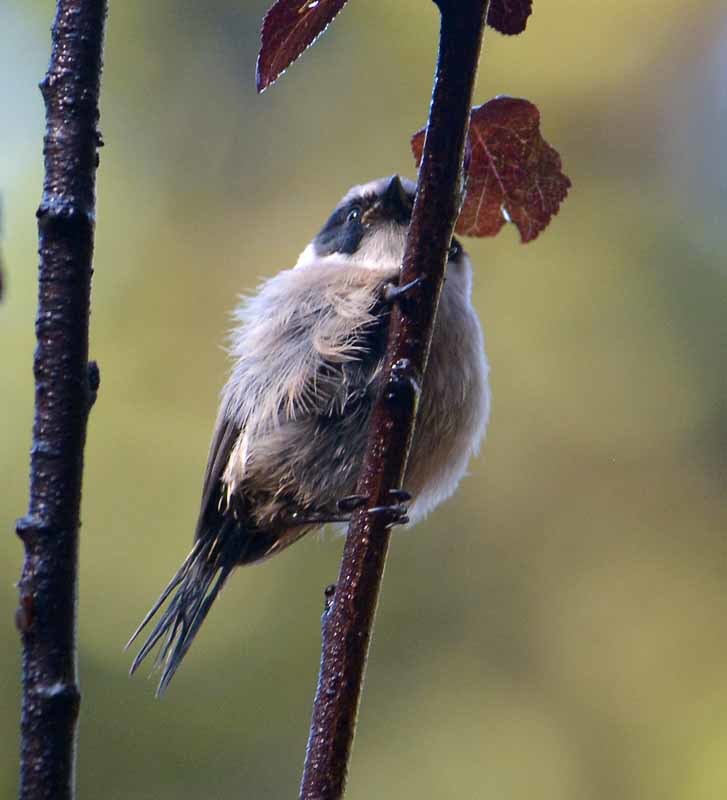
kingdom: Animalia
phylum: Chordata
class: Aves
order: Passeriformes
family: Aegithalidae
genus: Psaltriparus
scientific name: Psaltriparus minimus
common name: American bushtit
